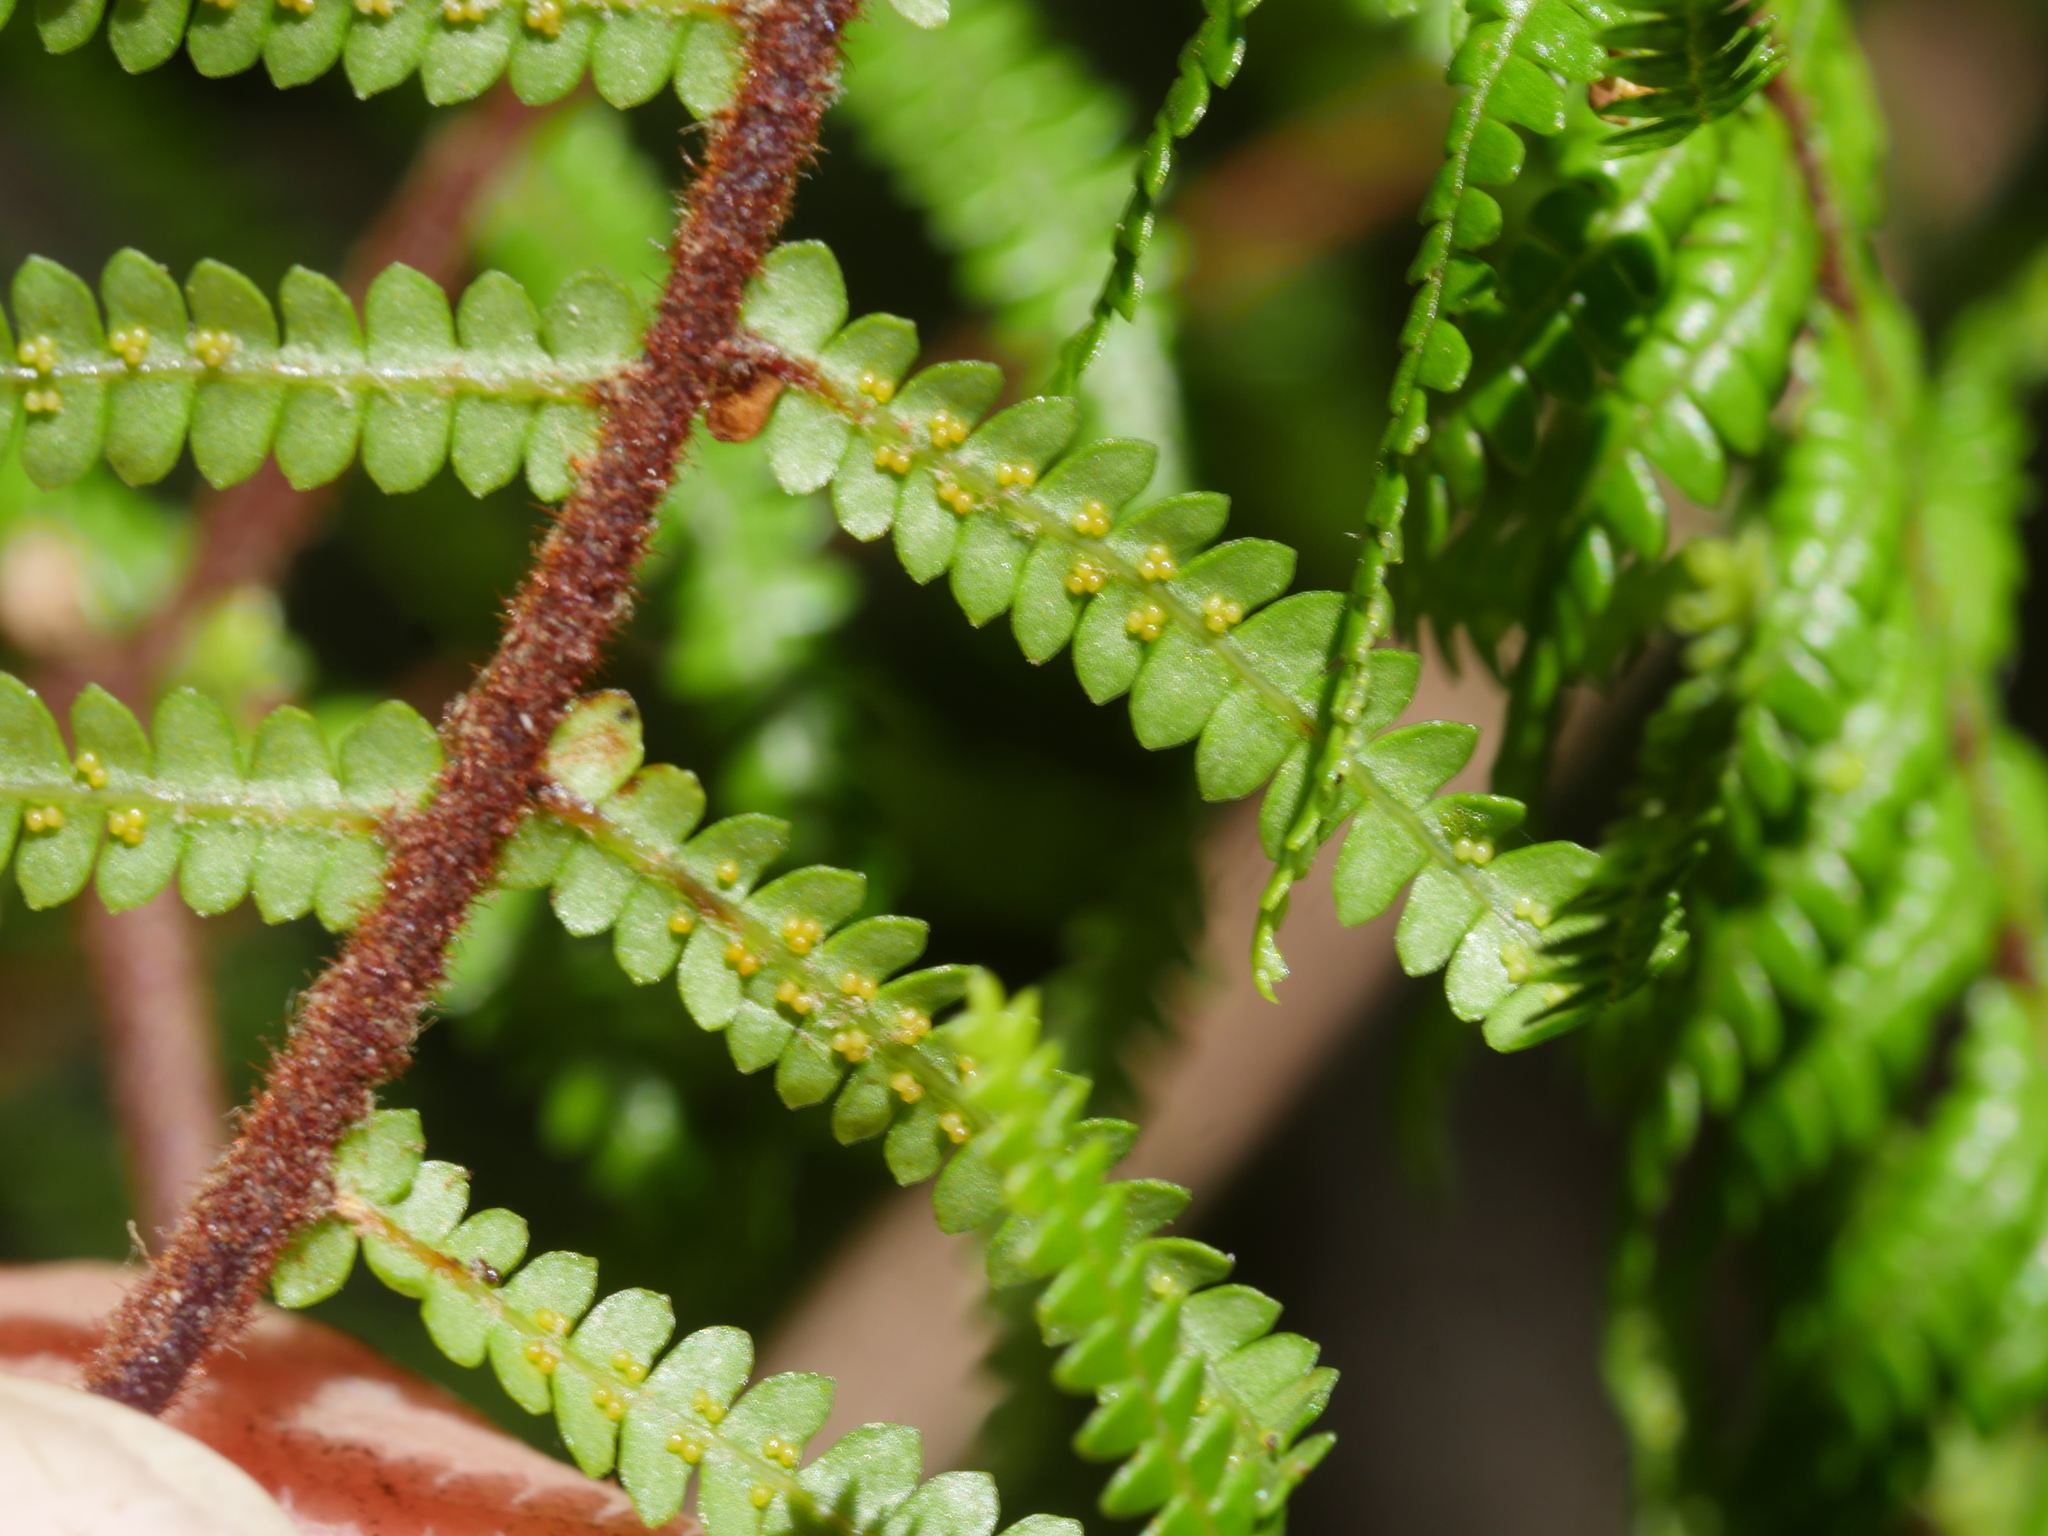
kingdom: Plantae
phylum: Tracheophyta
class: Polypodiopsida
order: Gleicheniales
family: Gleicheniaceae
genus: Gleichenia
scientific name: Gleichenia microphylla
